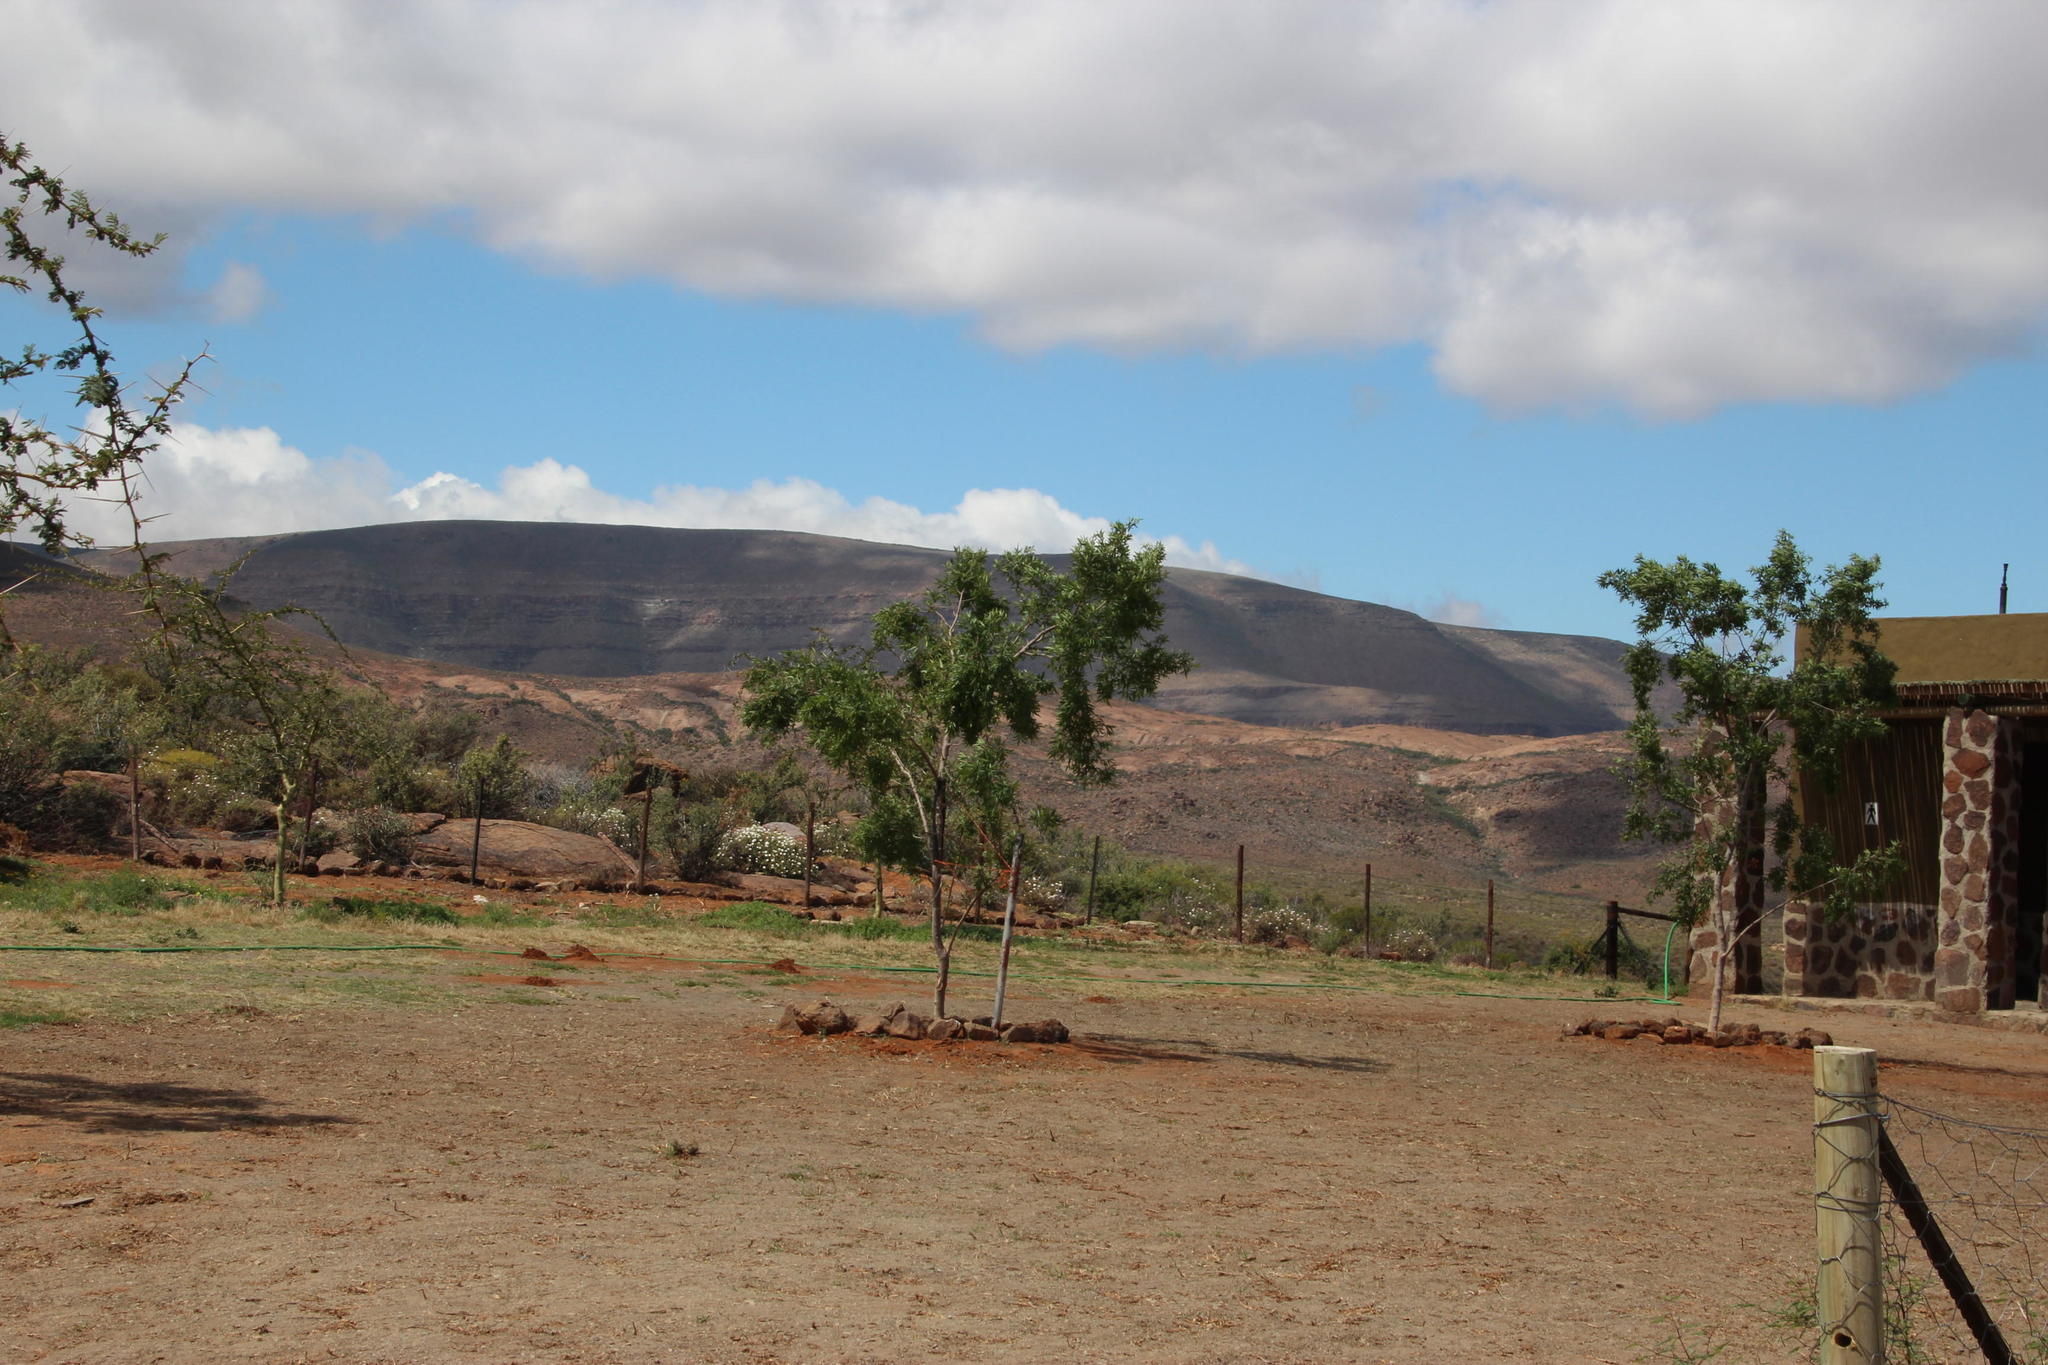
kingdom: Plantae
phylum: Tracheophyta
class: Magnoliopsida
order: Sapindales
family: Anacardiaceae
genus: Searsia
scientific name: Searsia lancea
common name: Cashew
